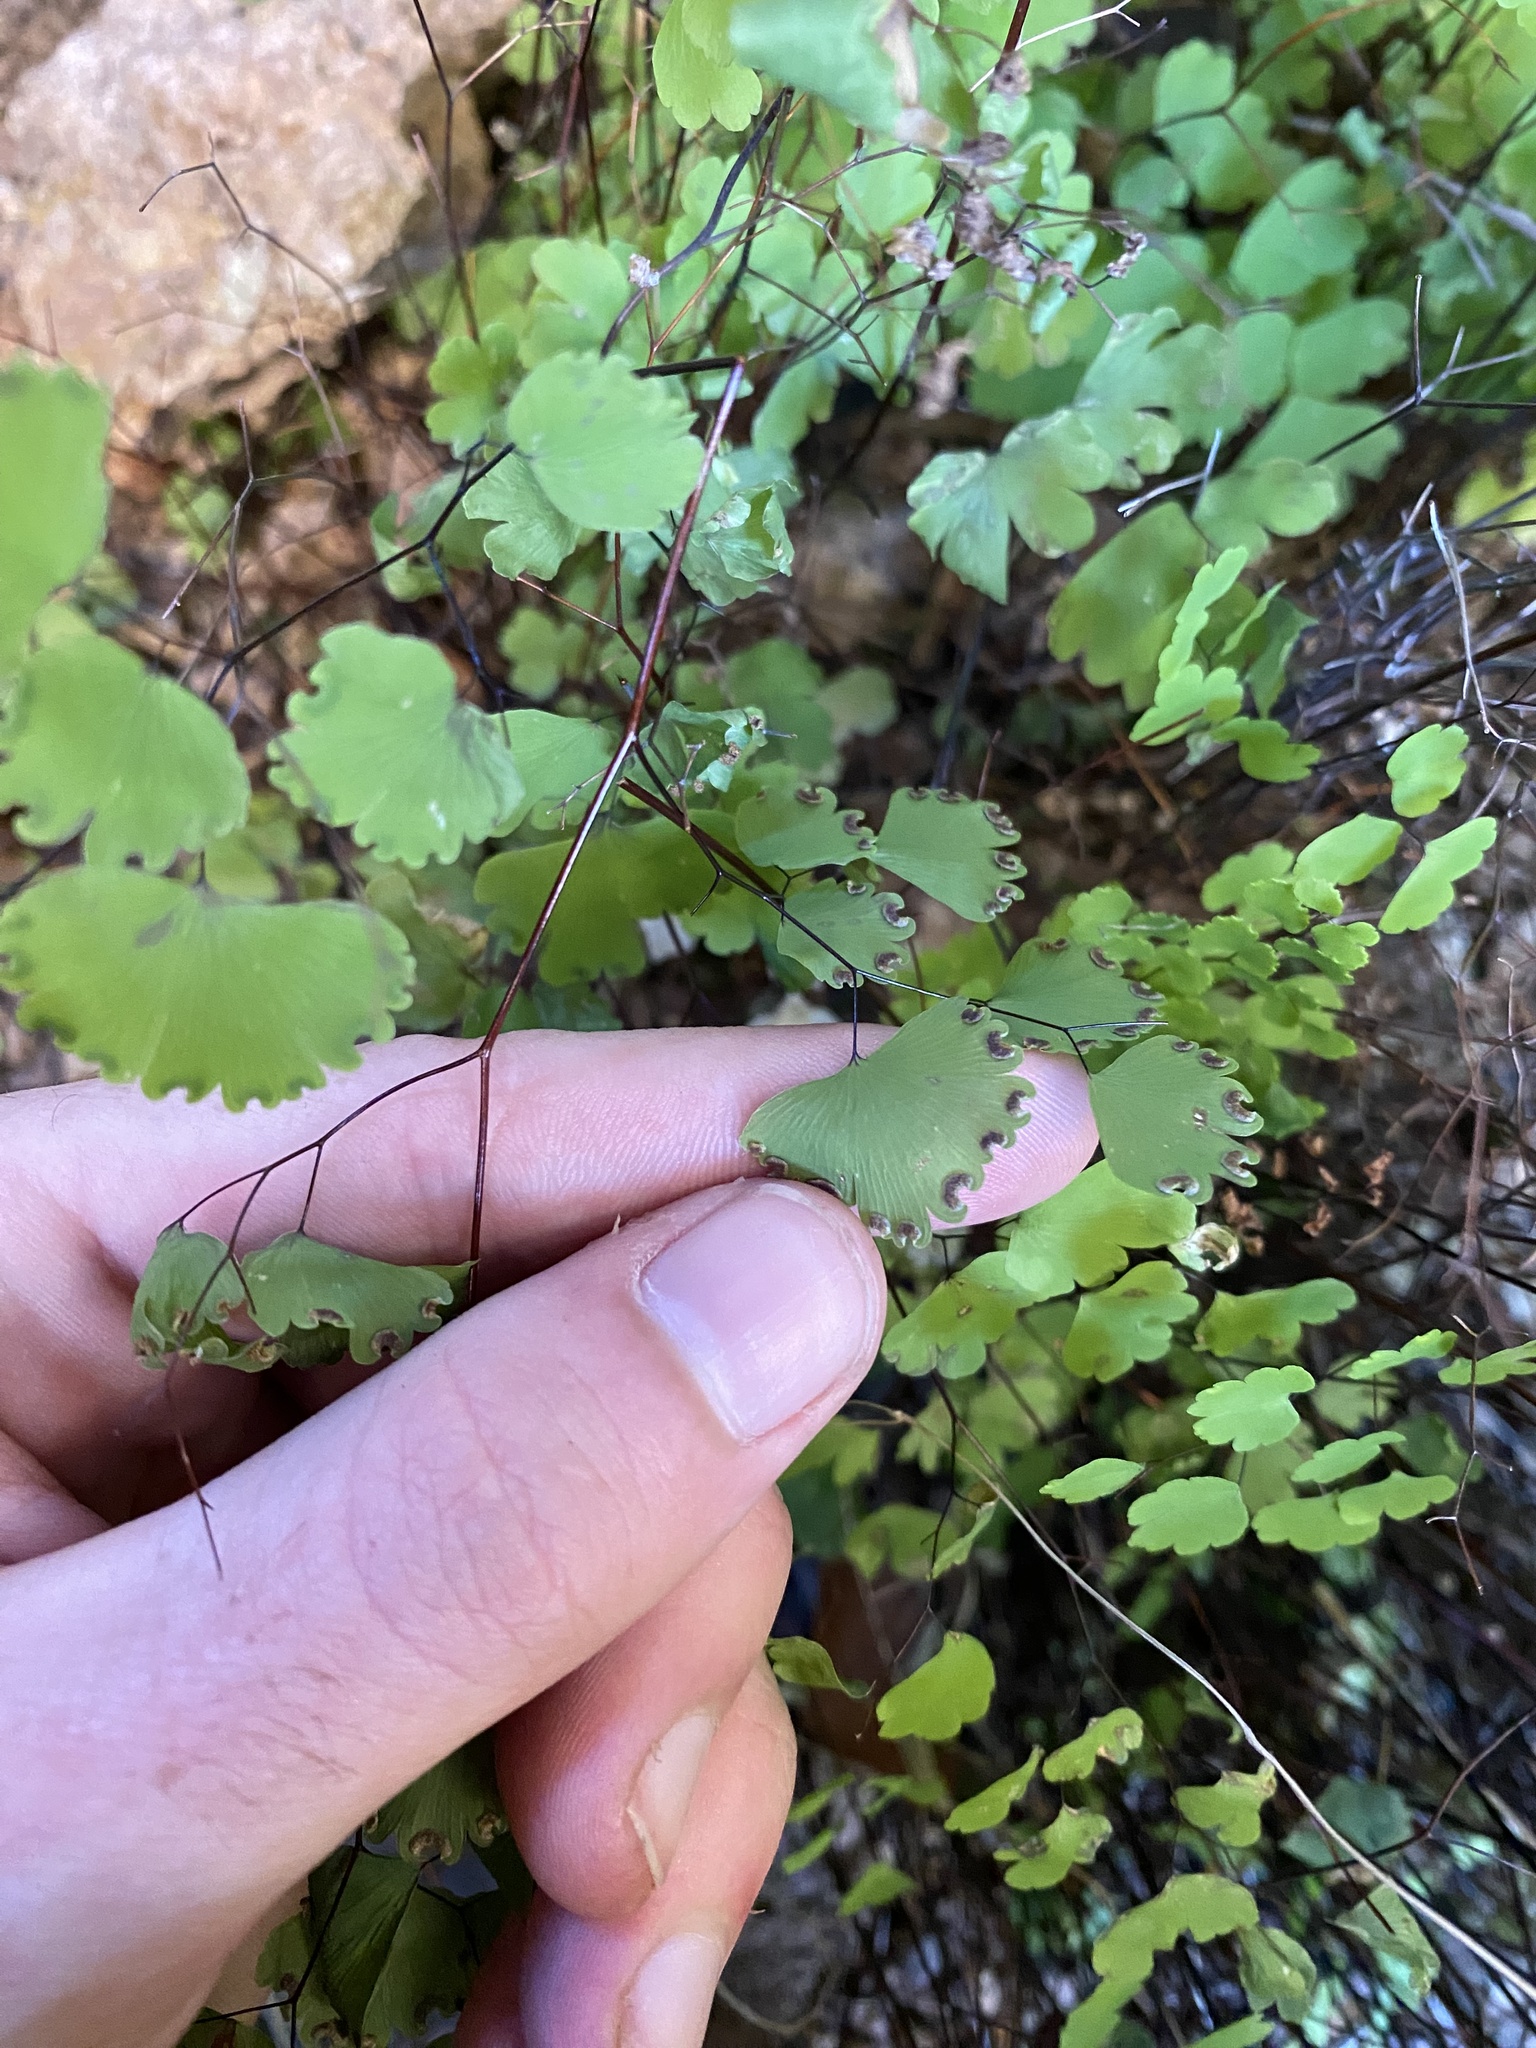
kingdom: Plantae
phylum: Tracheophyta
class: Polypodiopsida
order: Polypodiales
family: Pteridaceae
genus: Adiantum
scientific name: Adiantum poiretii
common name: Mexican maidenhair
